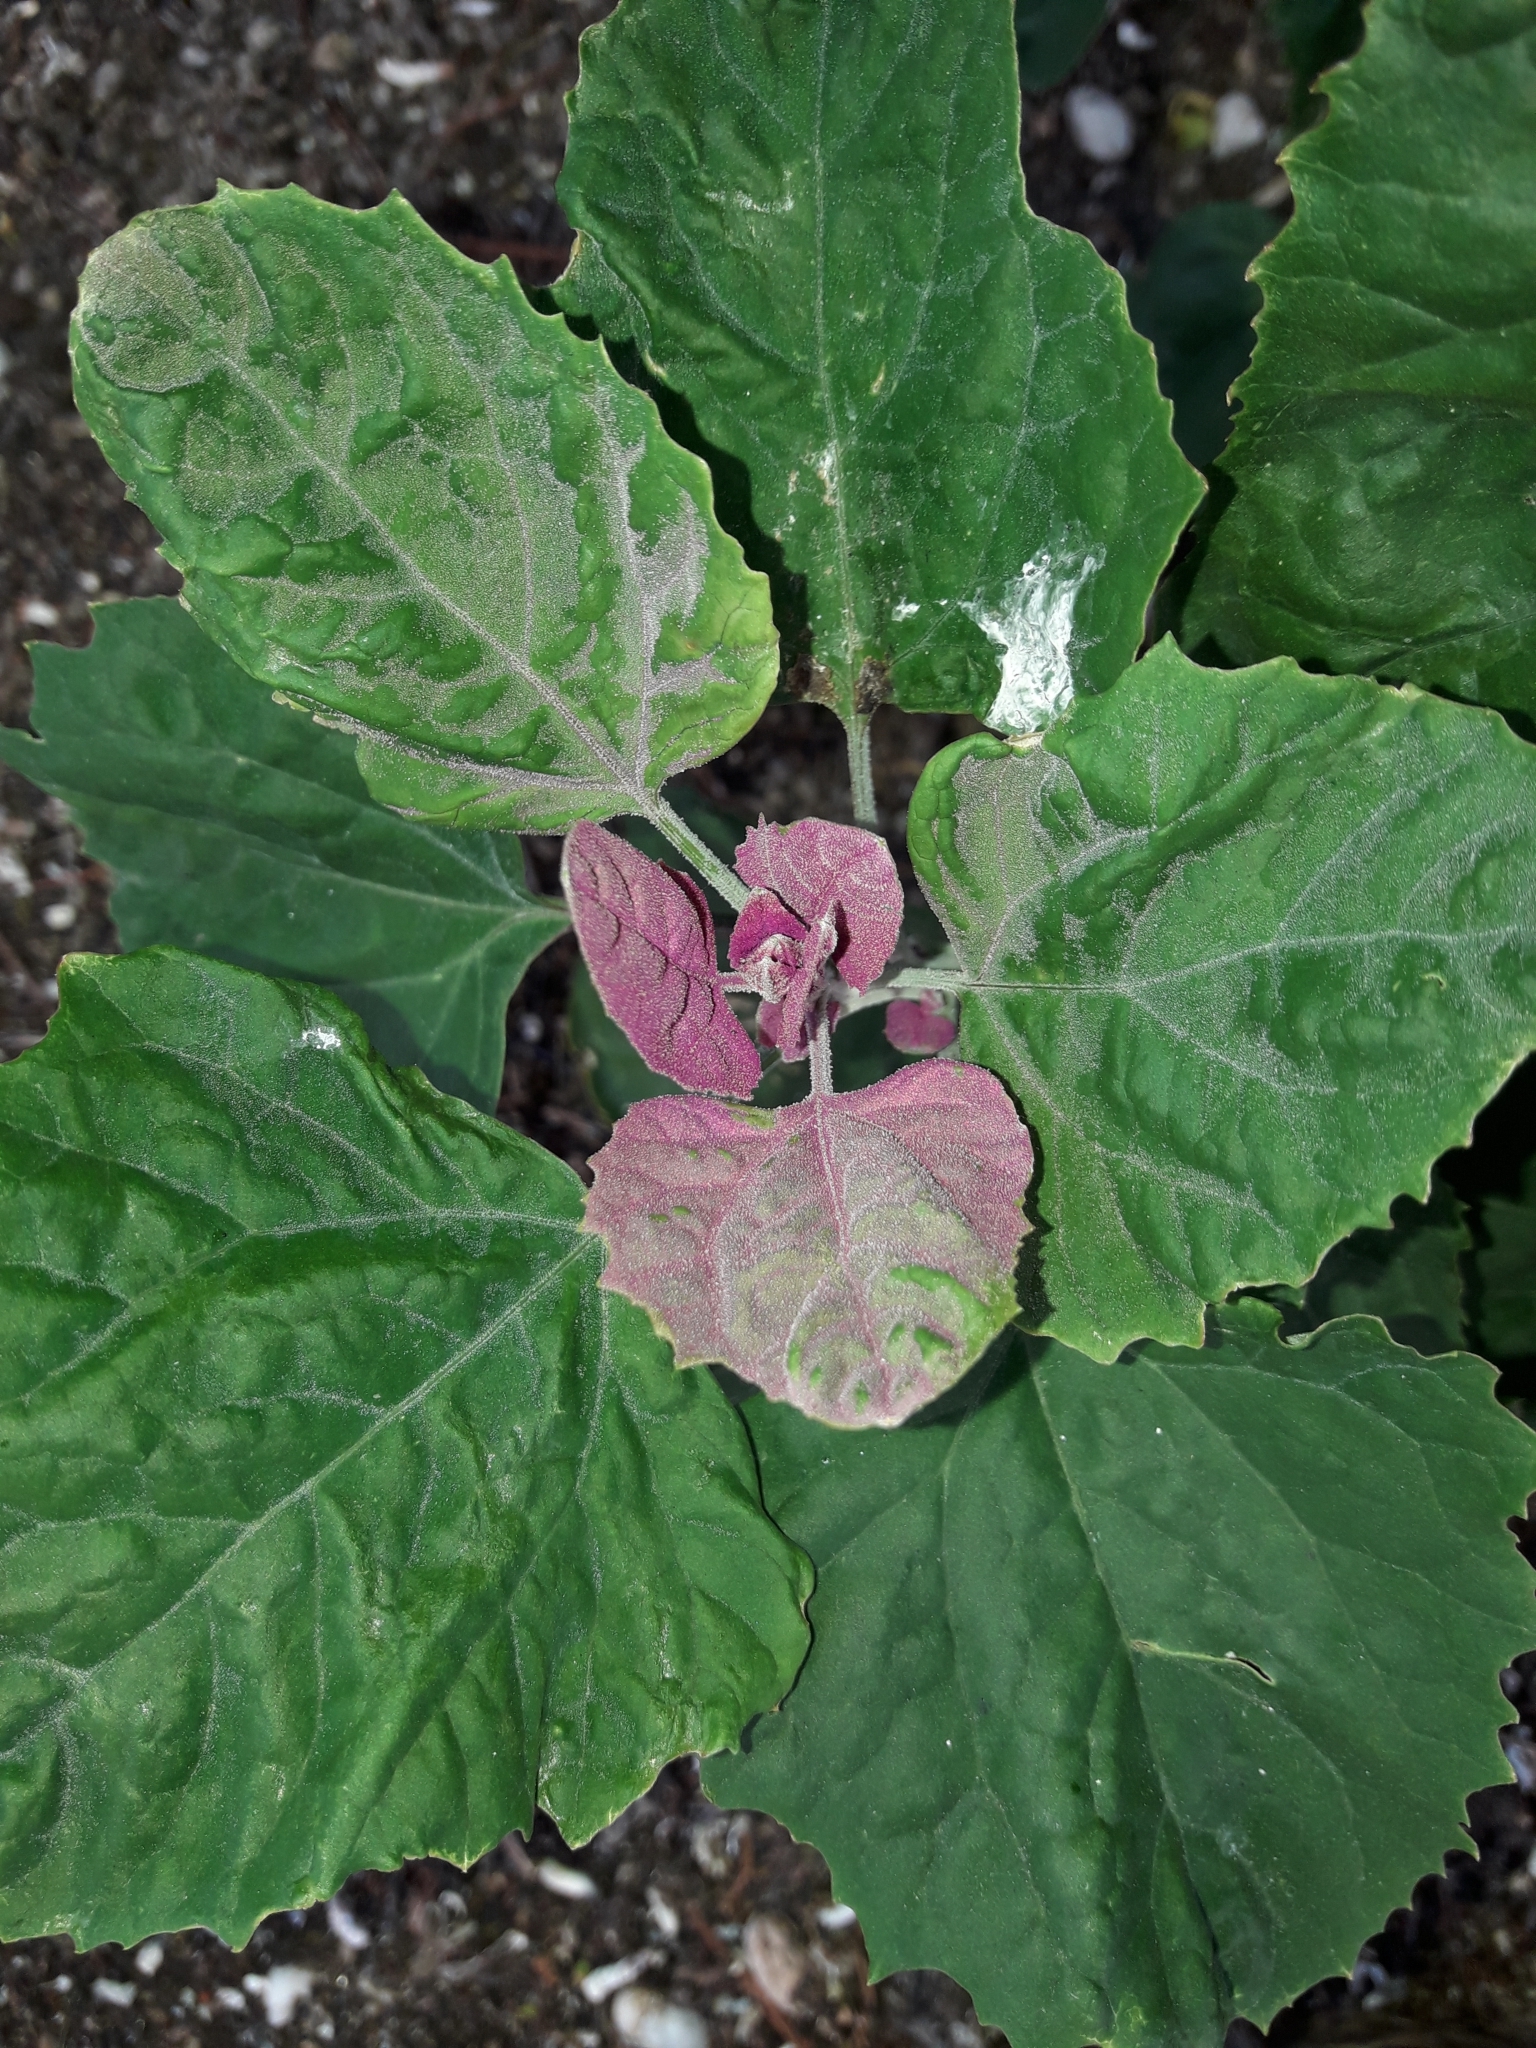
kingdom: Plantae
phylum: Tracheophyta
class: Magnoliopsida
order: Caryophyllales
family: Amaranthaceae
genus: Chenopodium
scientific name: Chenopodium giganteum
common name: Magentaspreen
